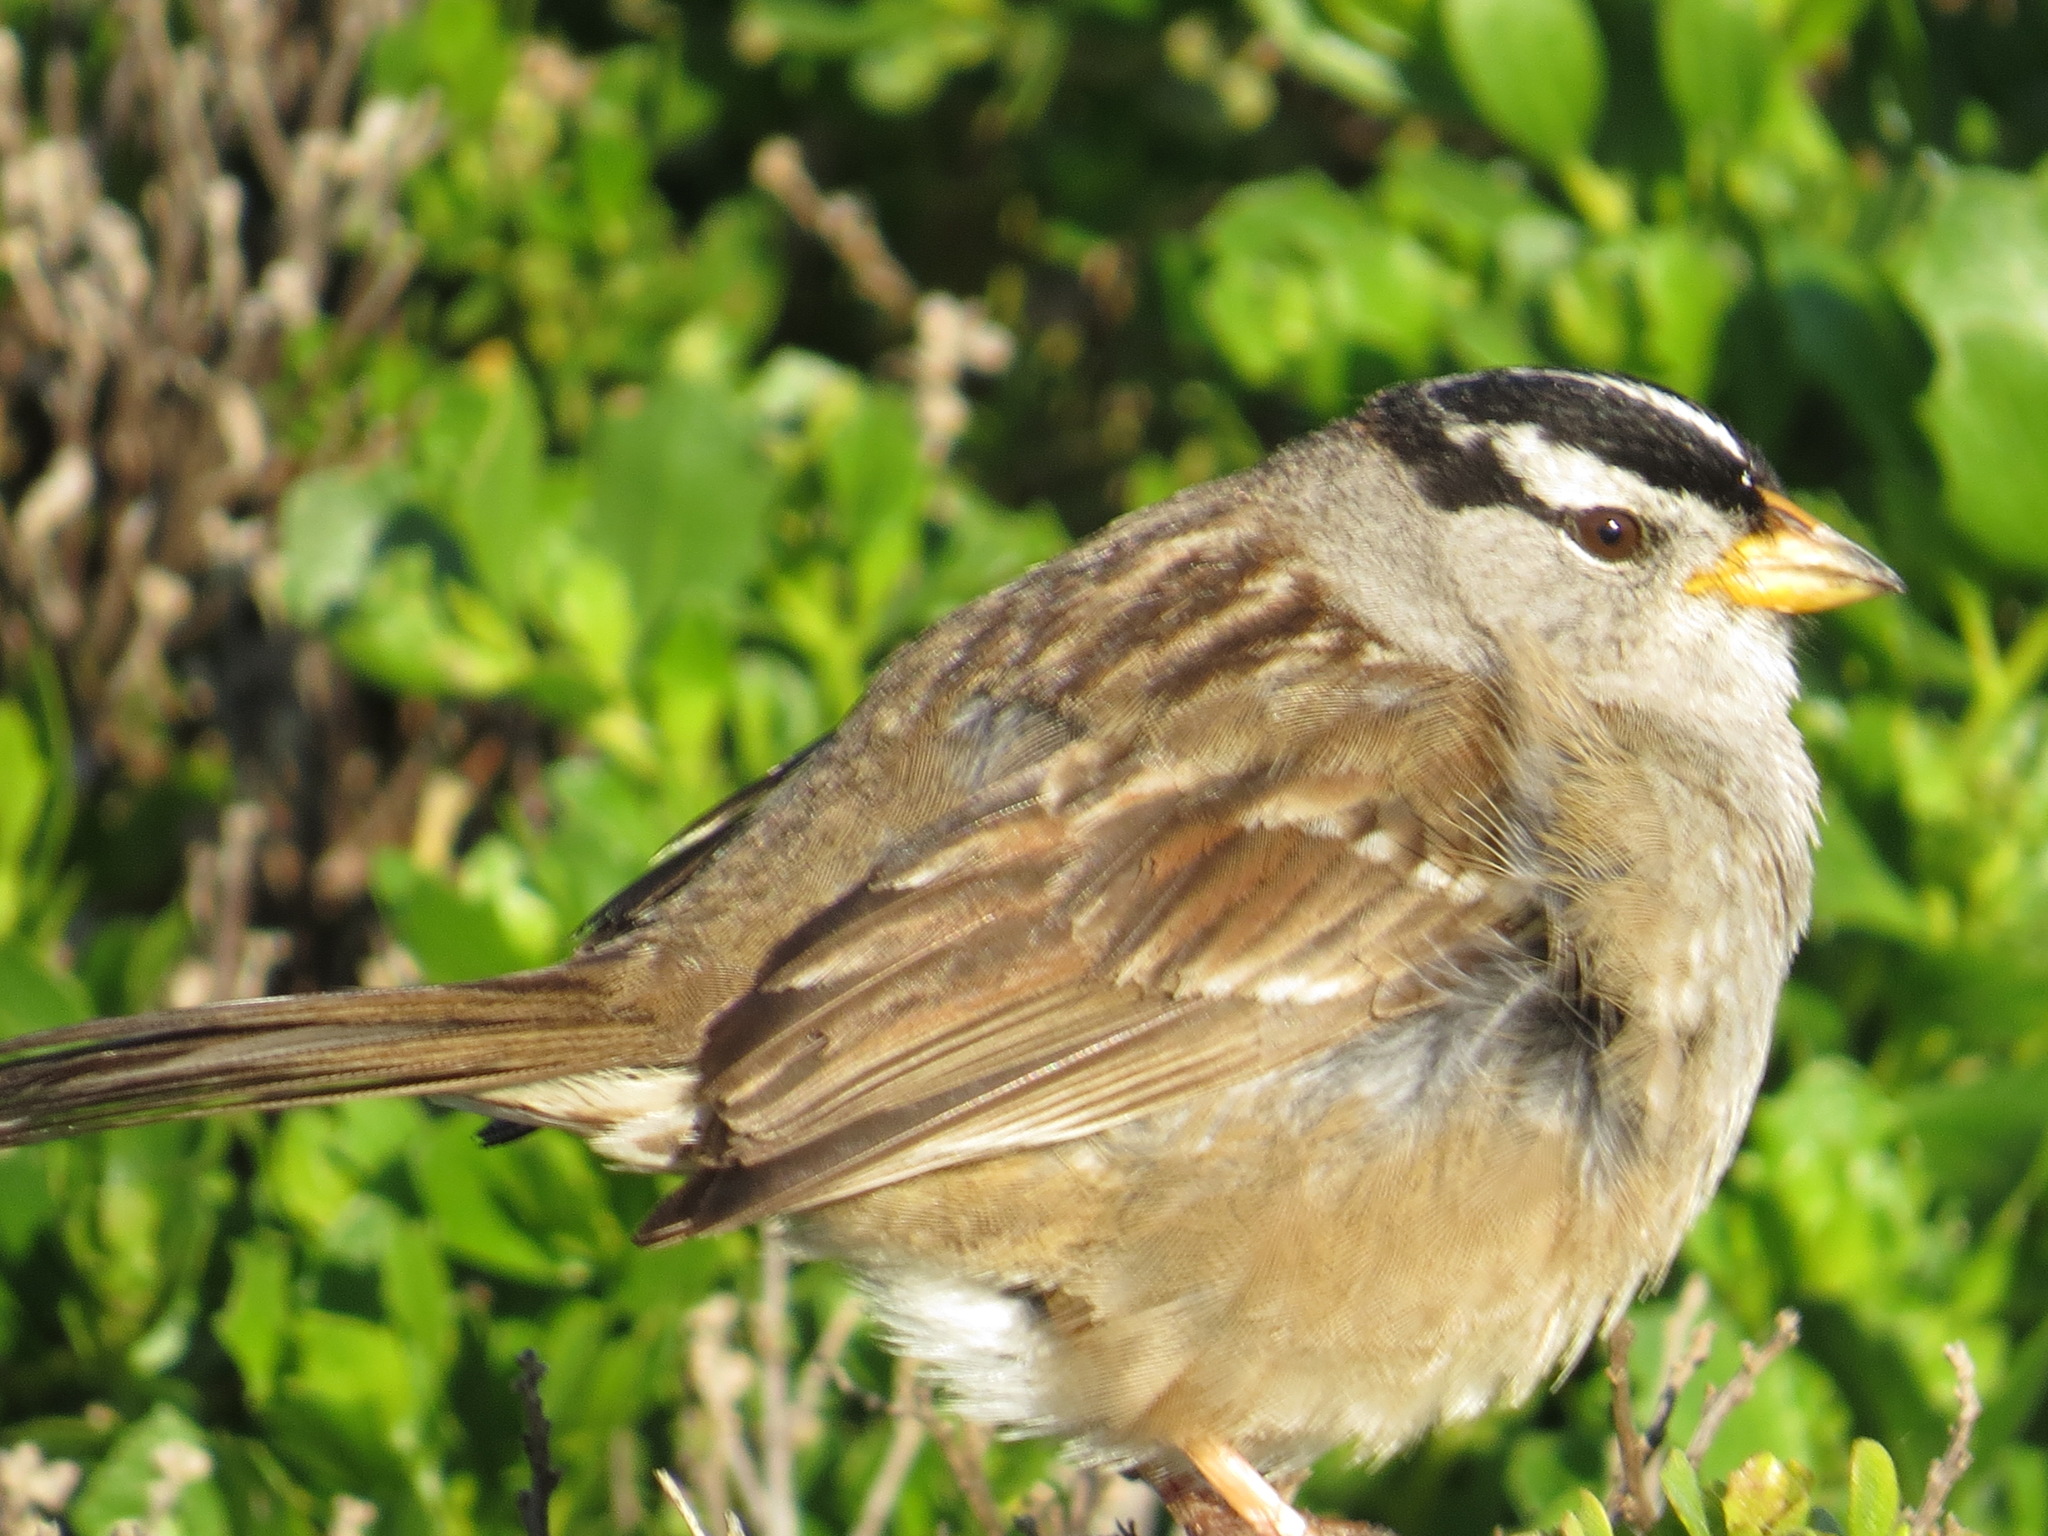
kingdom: Animalia
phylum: Chordata
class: Aves
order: Passeriformes
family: Passerellidae
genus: Zonotrichia
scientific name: Zonotrichia leucophrys
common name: White-crowned sparrow
